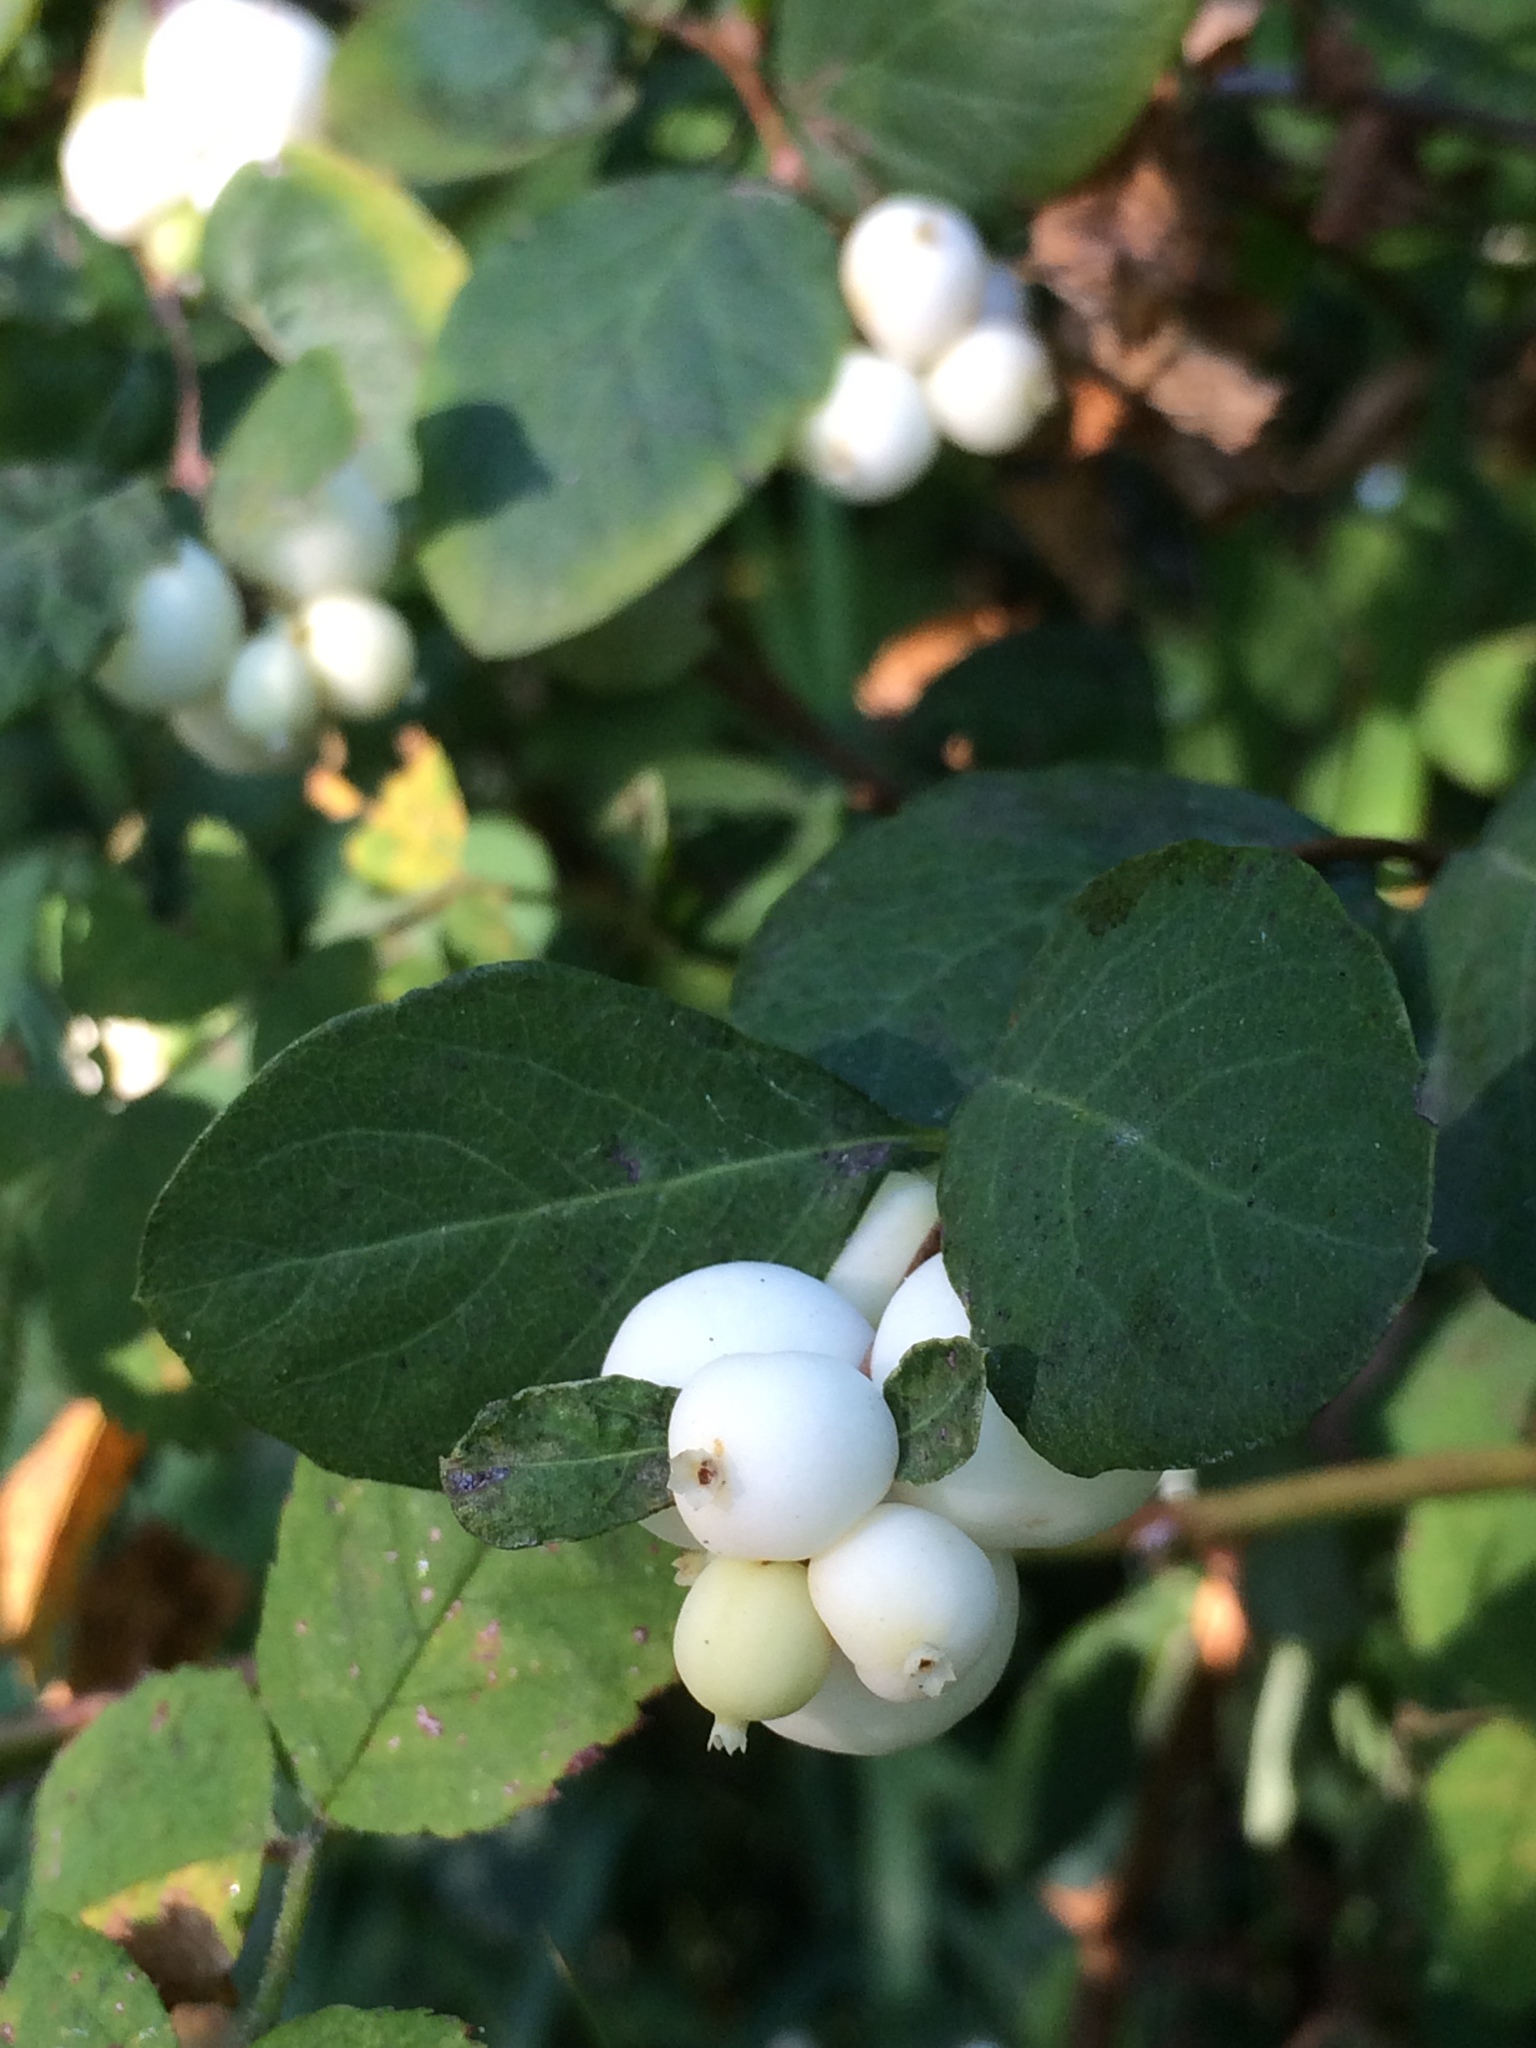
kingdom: Plantae
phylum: Tracheophyta
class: Magnoliopsida
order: Dipsacales
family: Caprifoliaceae
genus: Symphoricarpos
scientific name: Symphoricarpos albus
